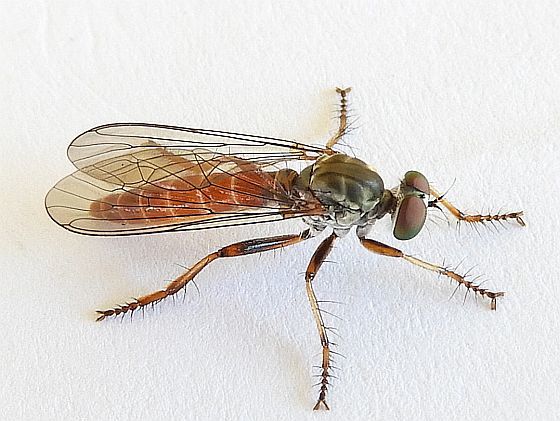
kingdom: Animalia
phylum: Arthropoda
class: Insecta
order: Diptera
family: Asilidae
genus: Ommatius
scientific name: Ommatius pretiosus
